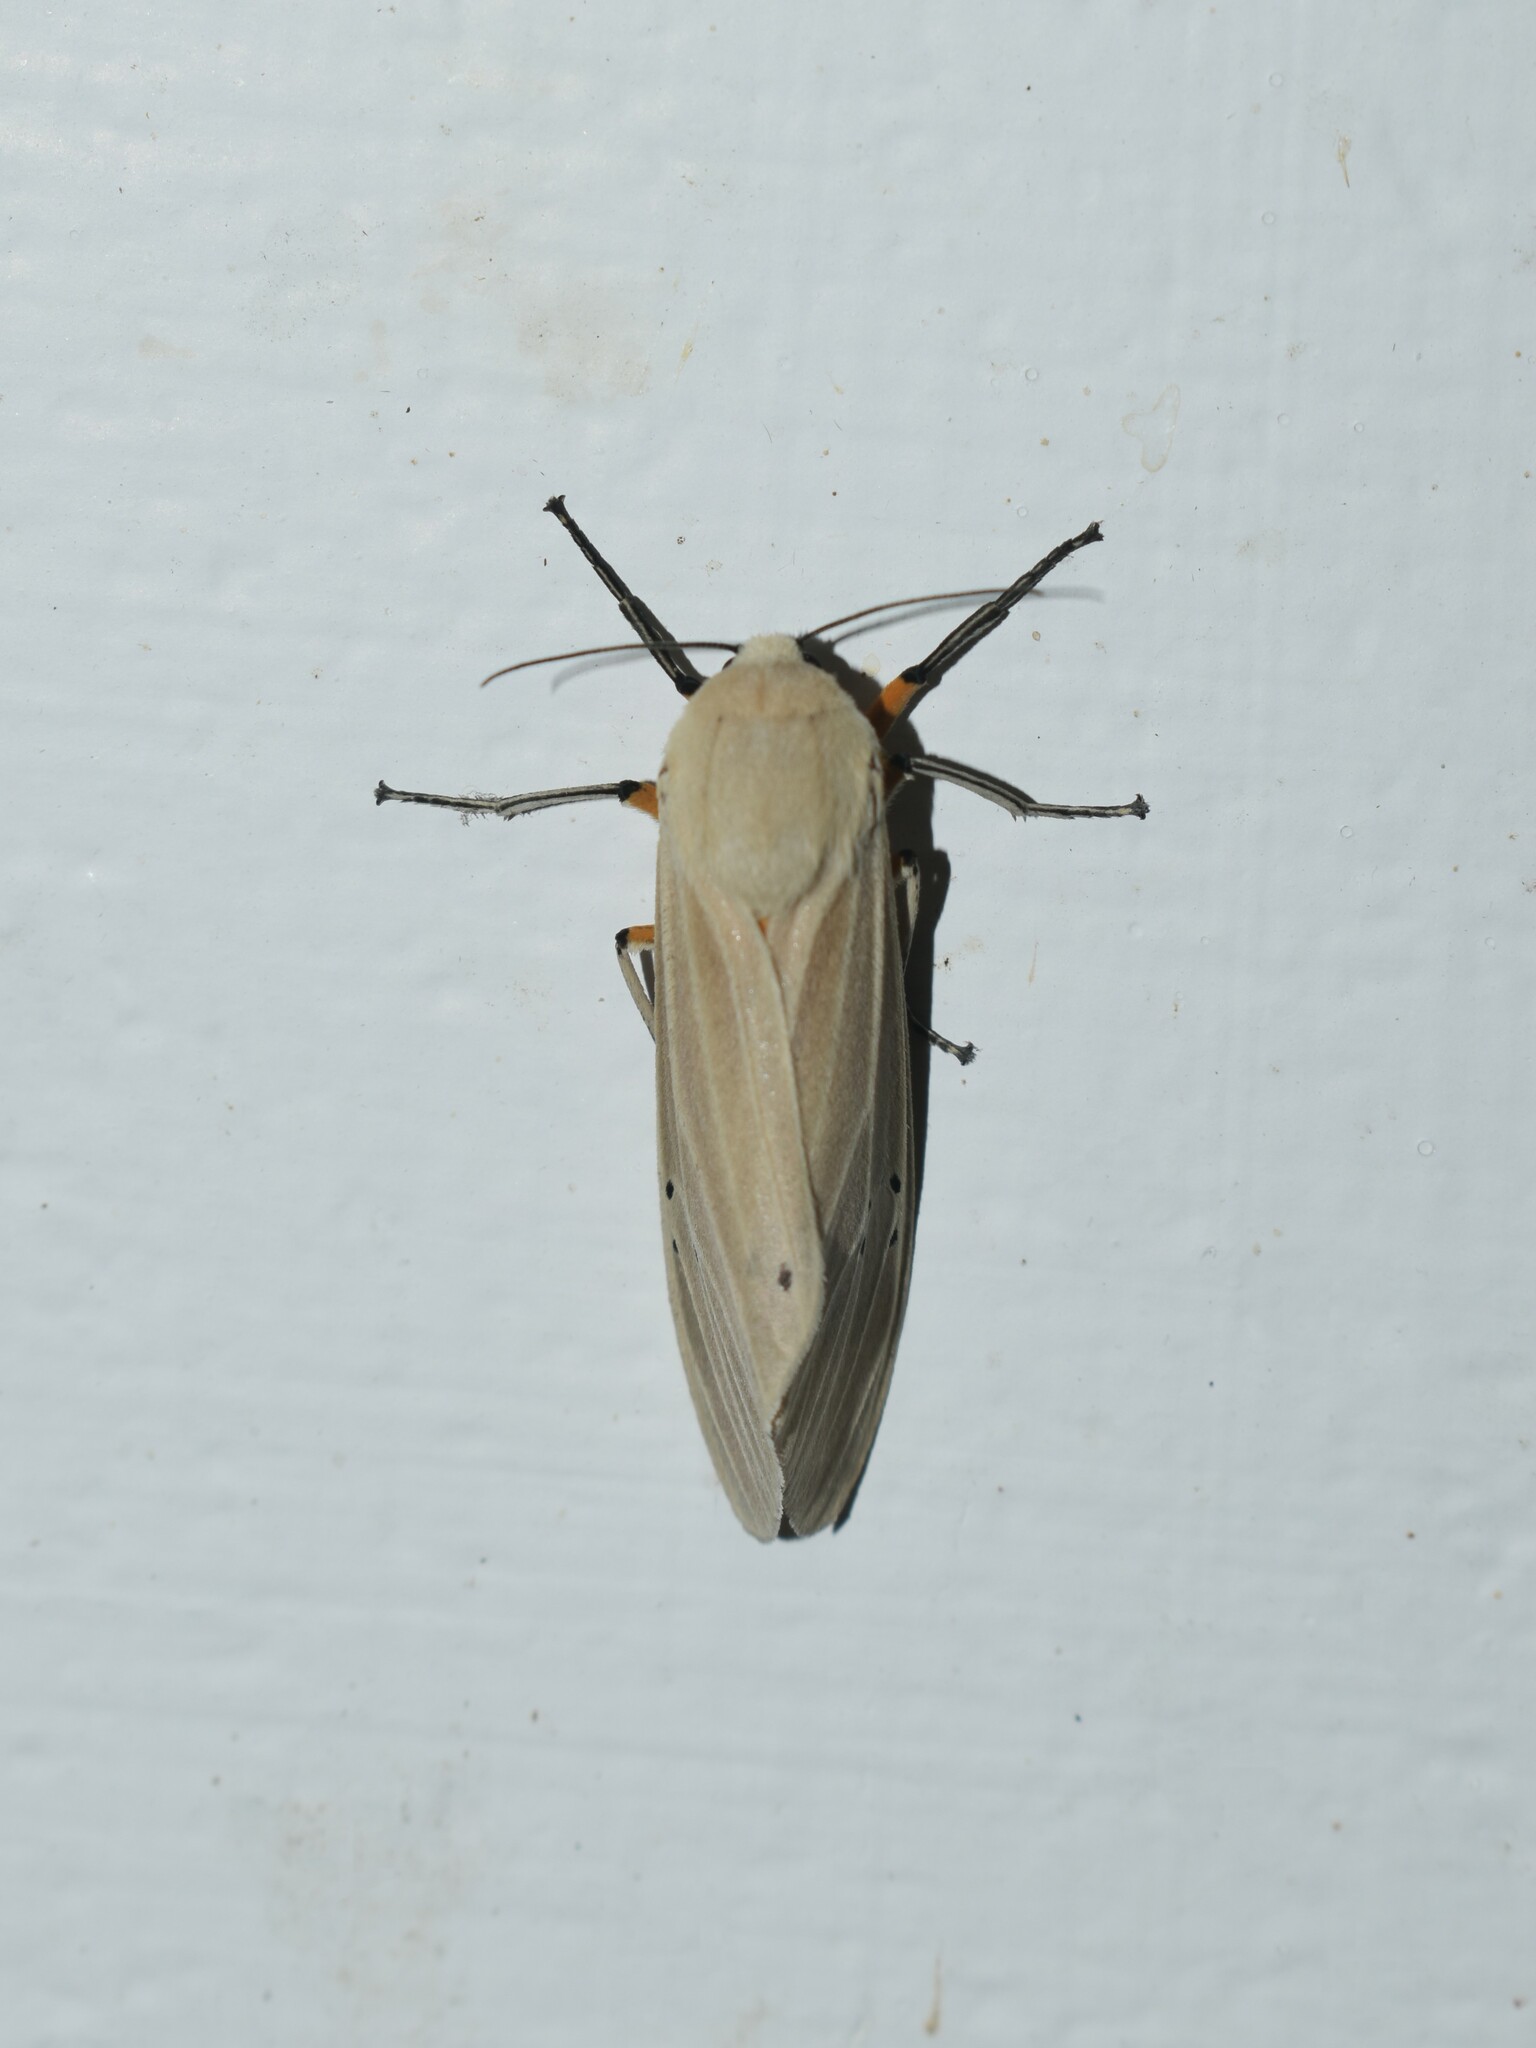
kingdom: Animalia
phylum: Arthropoda
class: Insecta
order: Lepidoptera
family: Erebidae
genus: Creatonotos
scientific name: Creatonotos transiens
